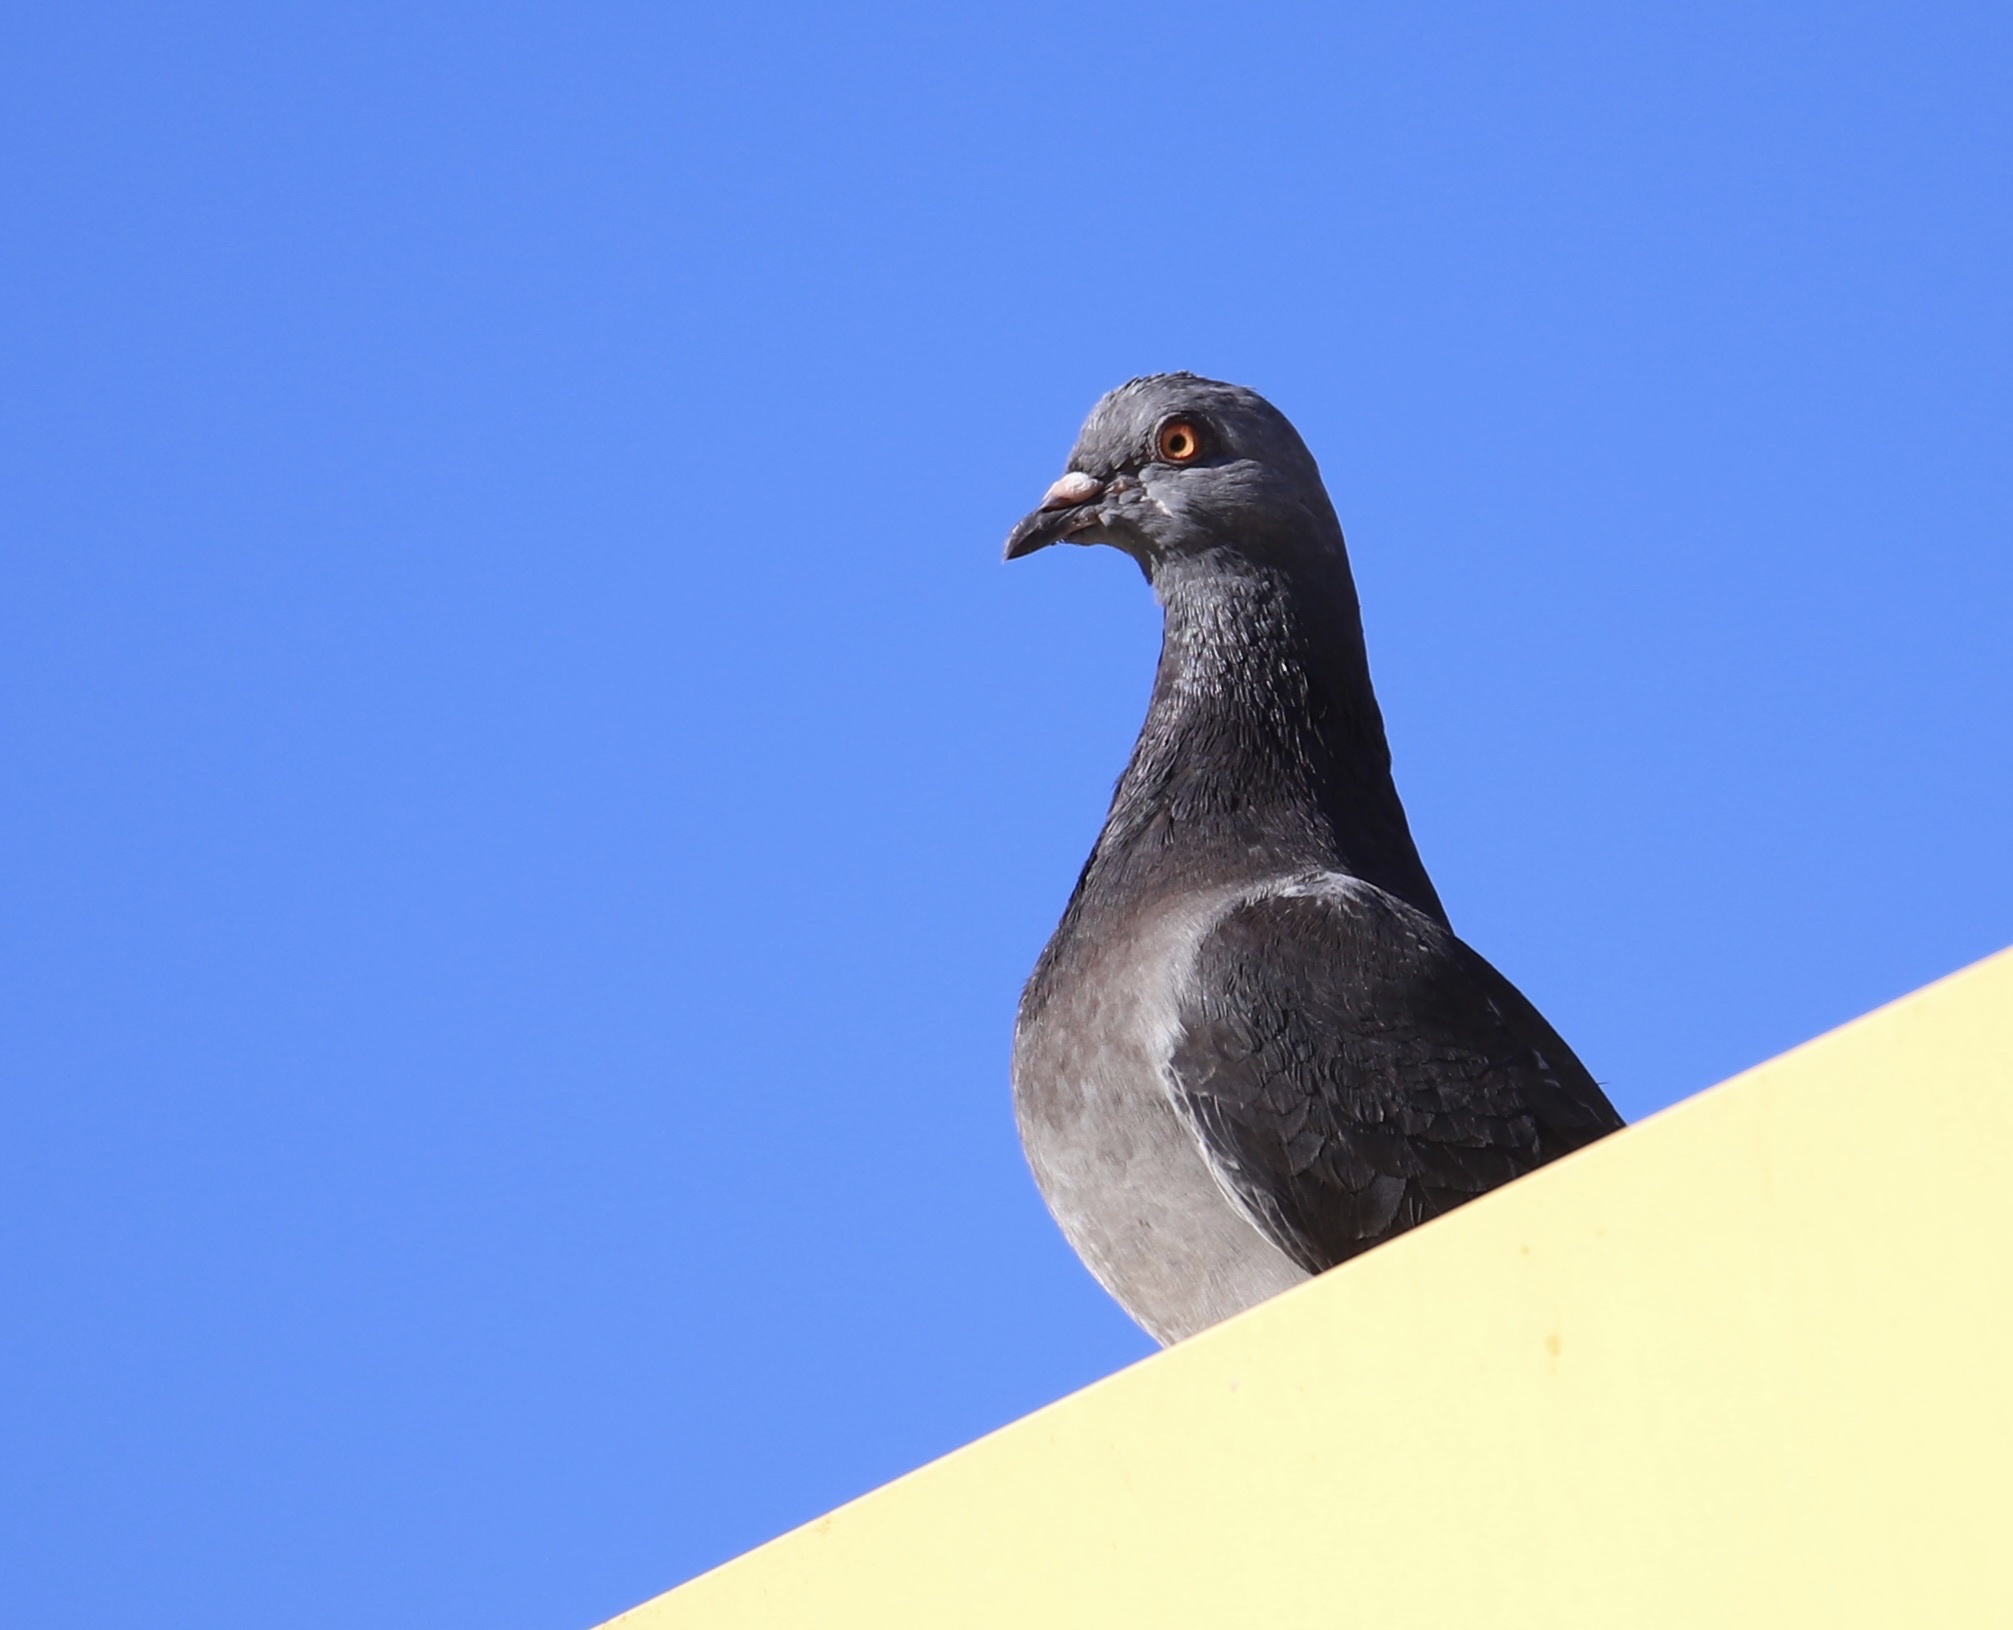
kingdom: Animalia
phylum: Chordata
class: Aves
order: Columbiformes
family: Columbidae
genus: Columba
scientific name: Columba livia
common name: Rock pigeon
